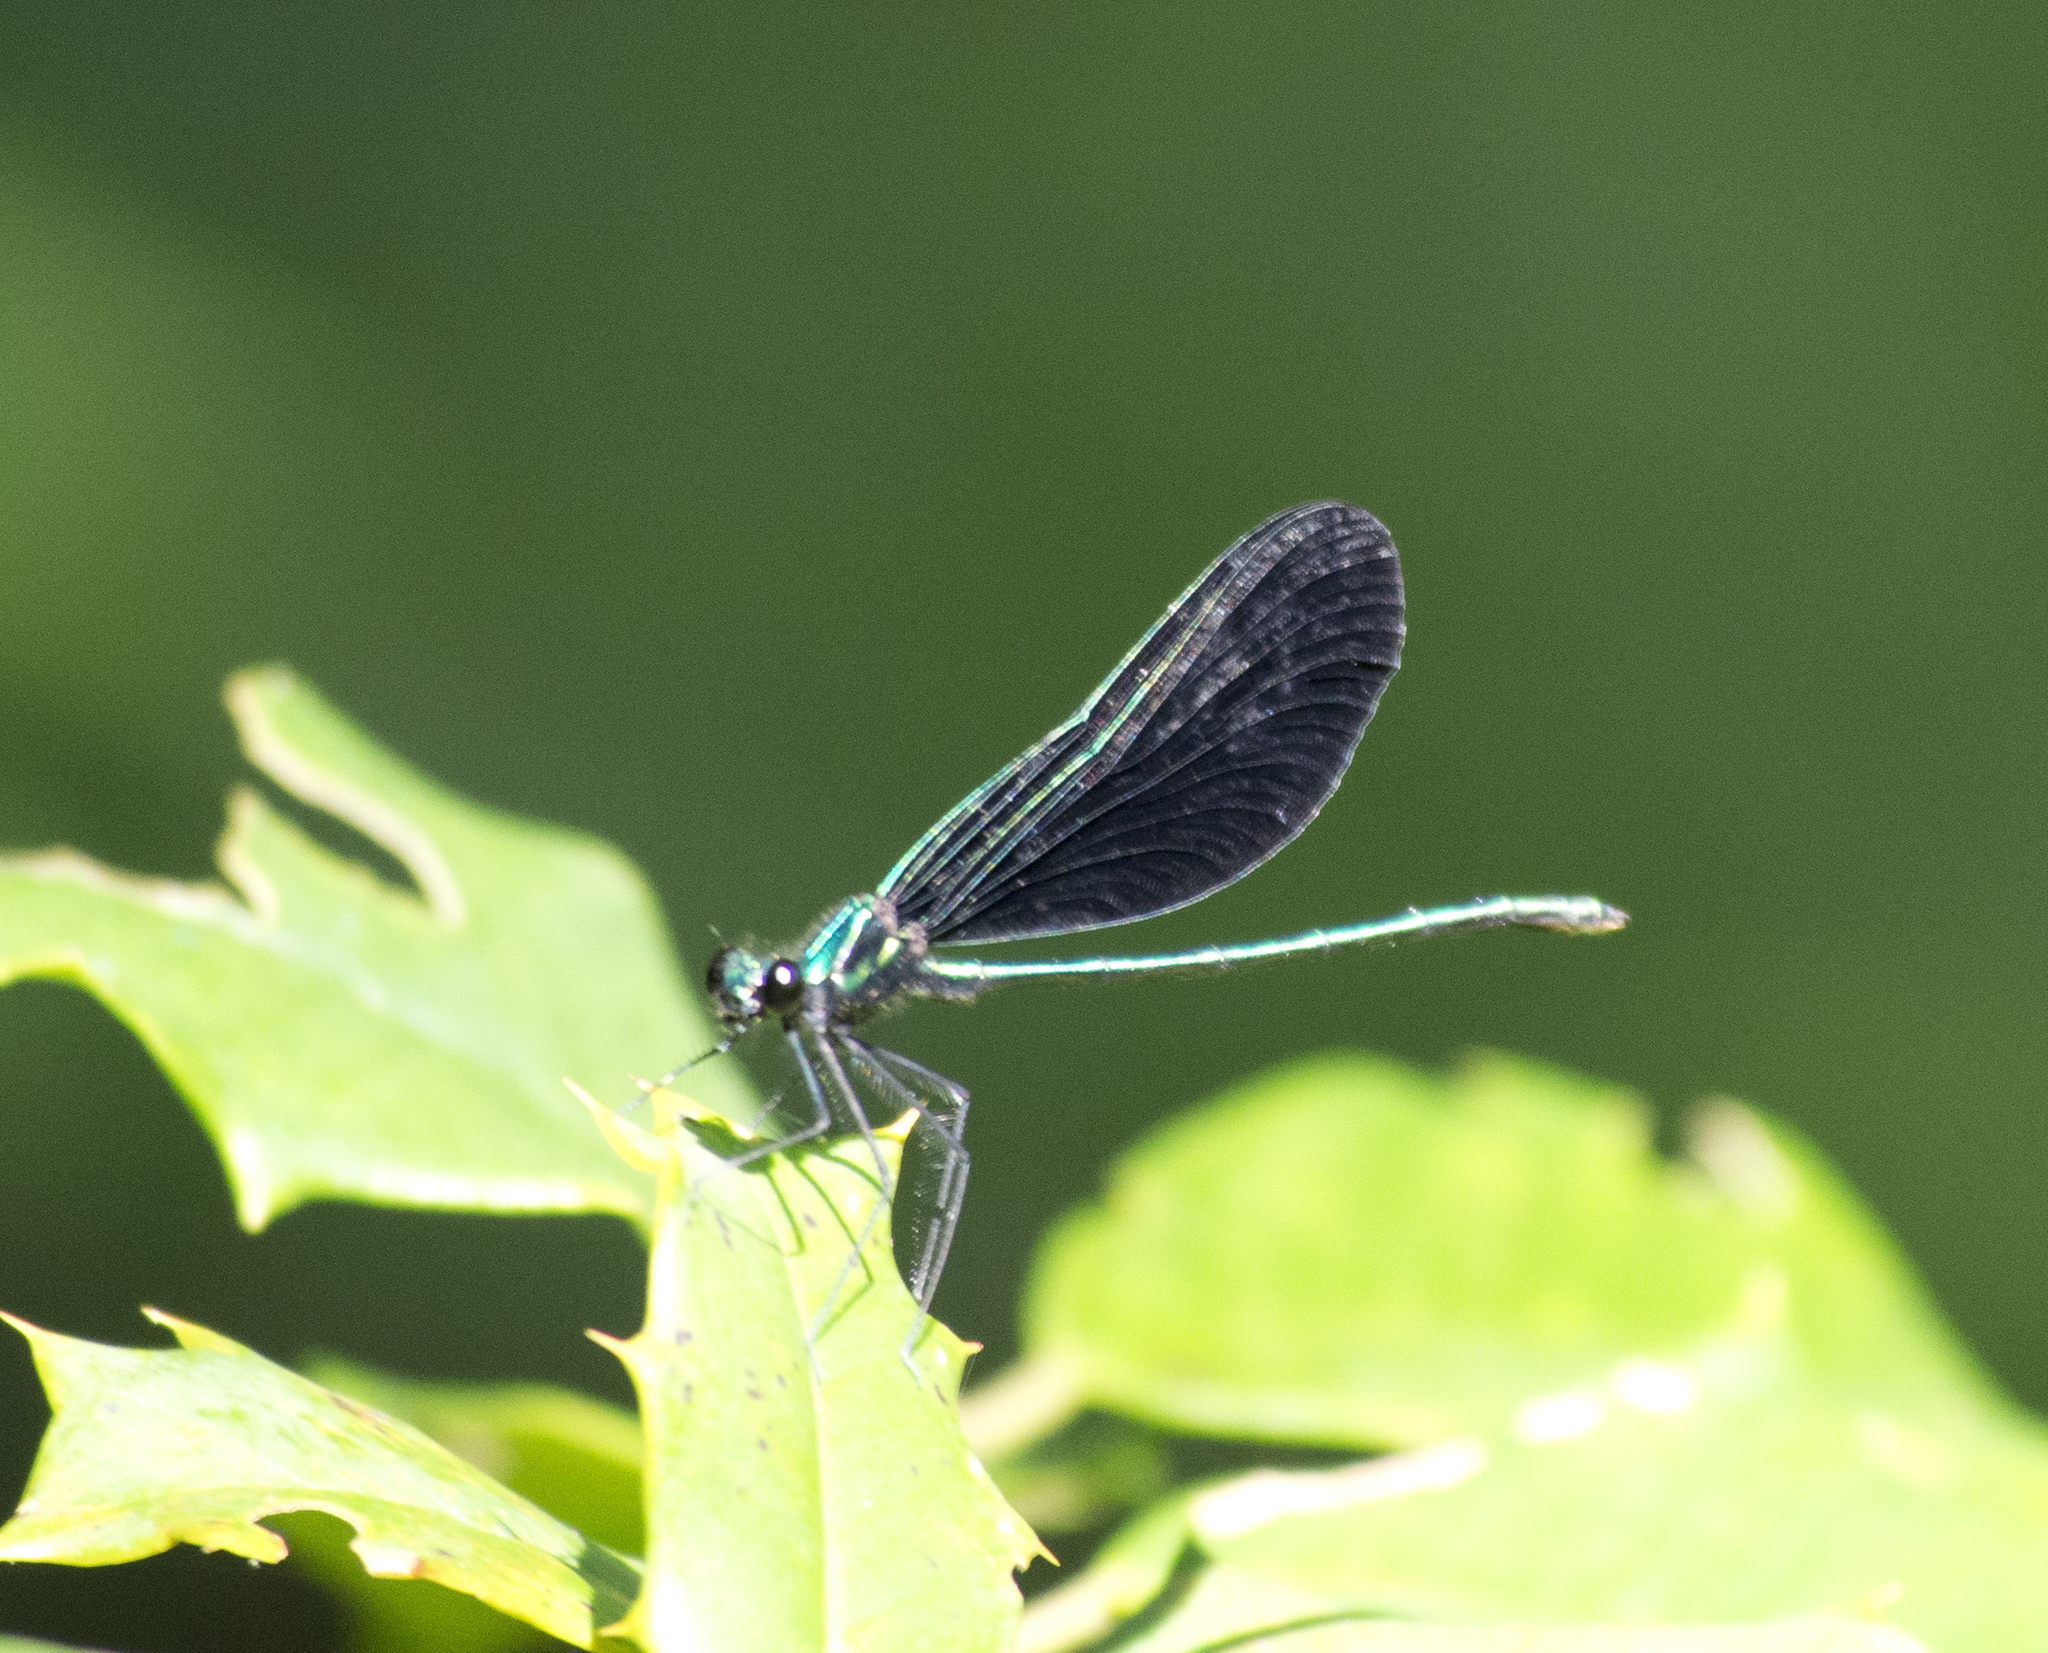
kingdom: Animalia
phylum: Arthropoda
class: Insecta
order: Odonata
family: Calopterygidae
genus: Calopteryx
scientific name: Calopteryx maculata
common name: Ebony jewelwing
